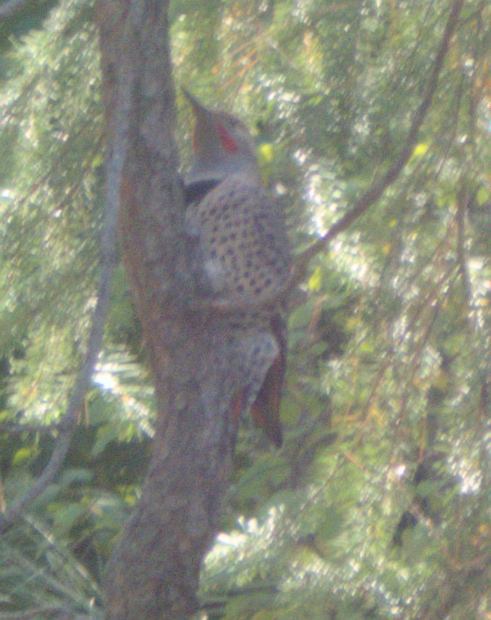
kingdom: Animalia
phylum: Chordata
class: Aves
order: Piciformes
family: Picidae
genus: Colaptes
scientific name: Colaptes auratus
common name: Northern flicker
